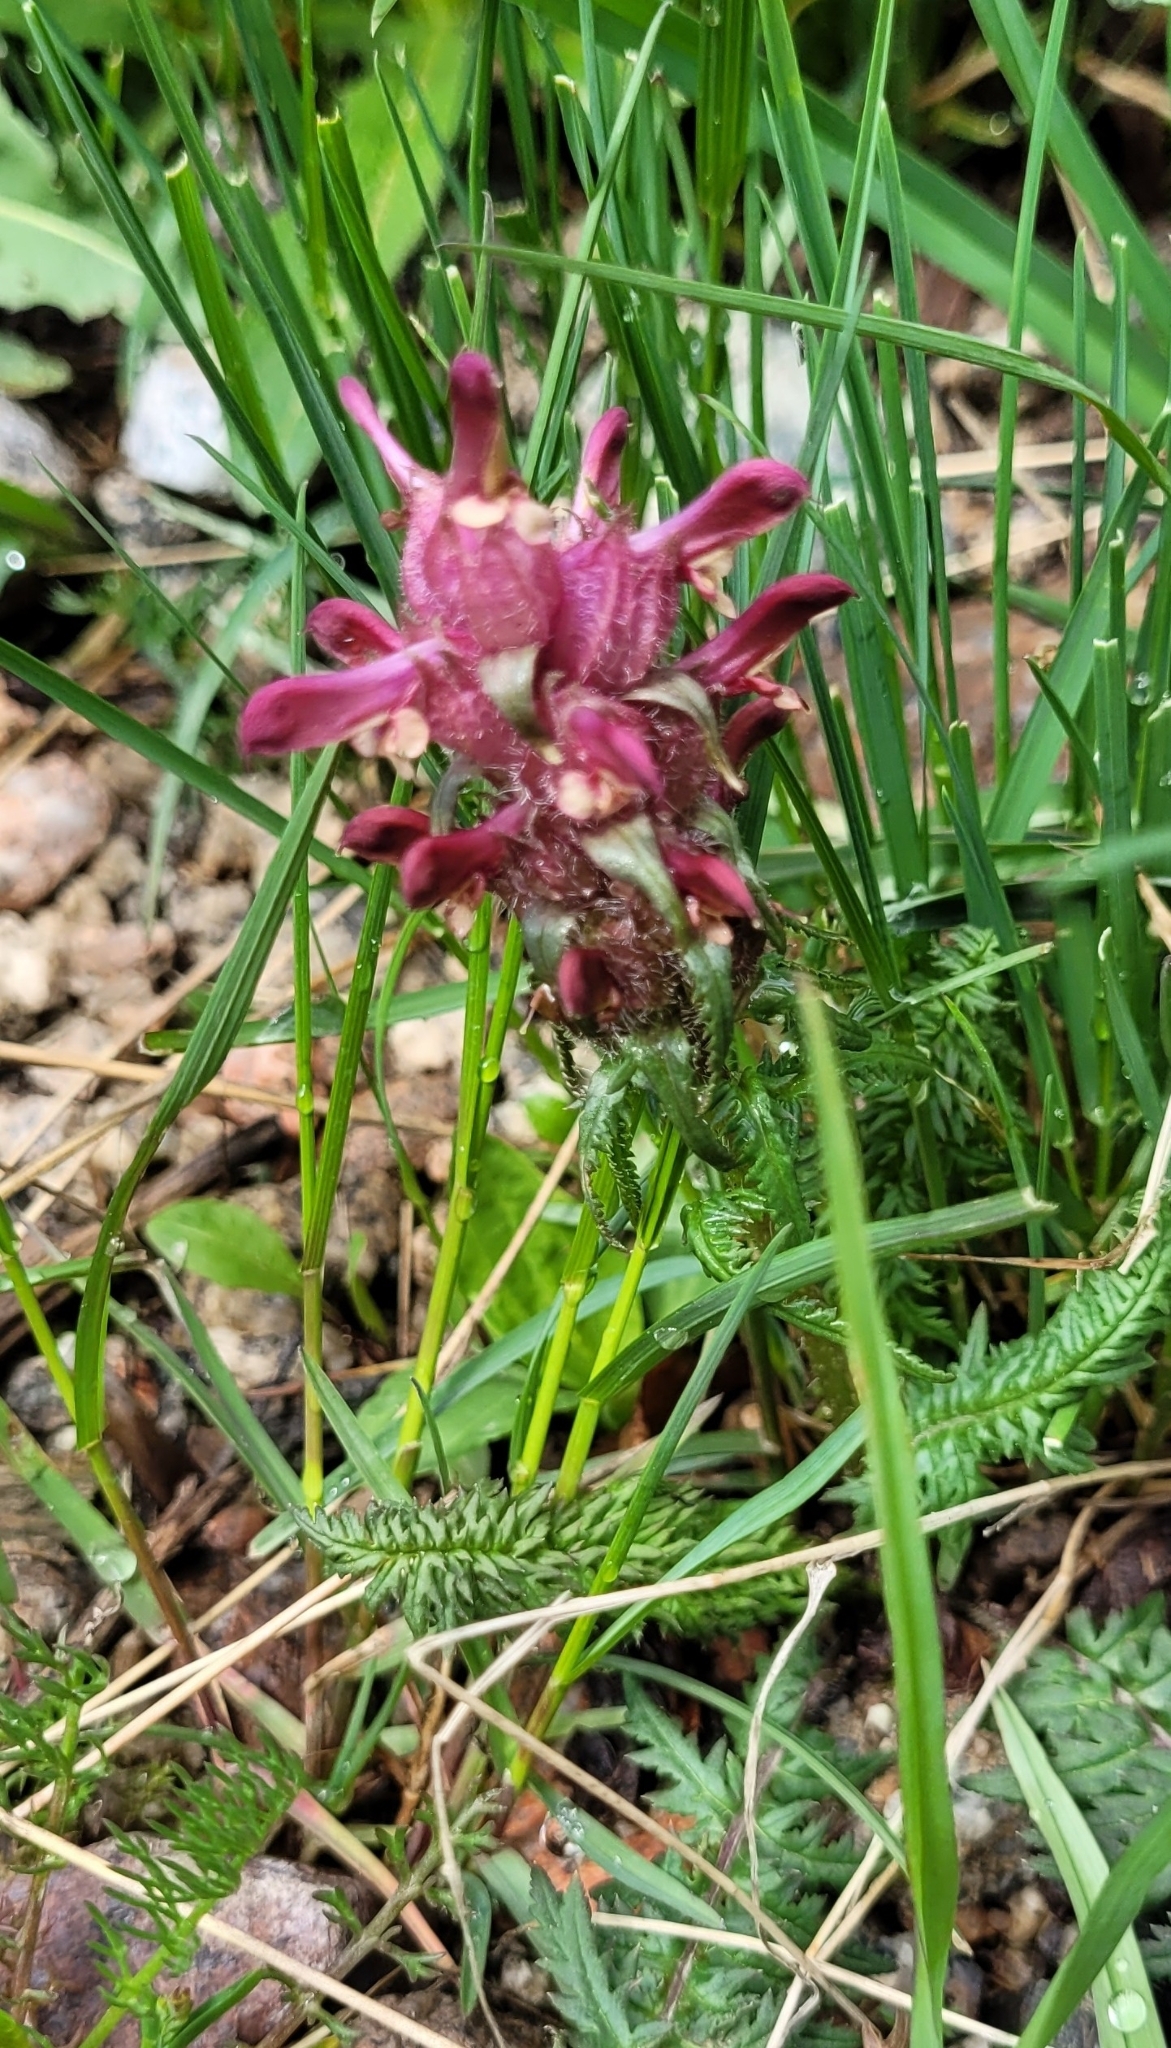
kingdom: Plantae
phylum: Tracheophyta
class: Magnoliopsida
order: Lamiales
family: Orobanchaceae
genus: Pedicularis
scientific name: Pedicularis alberti
